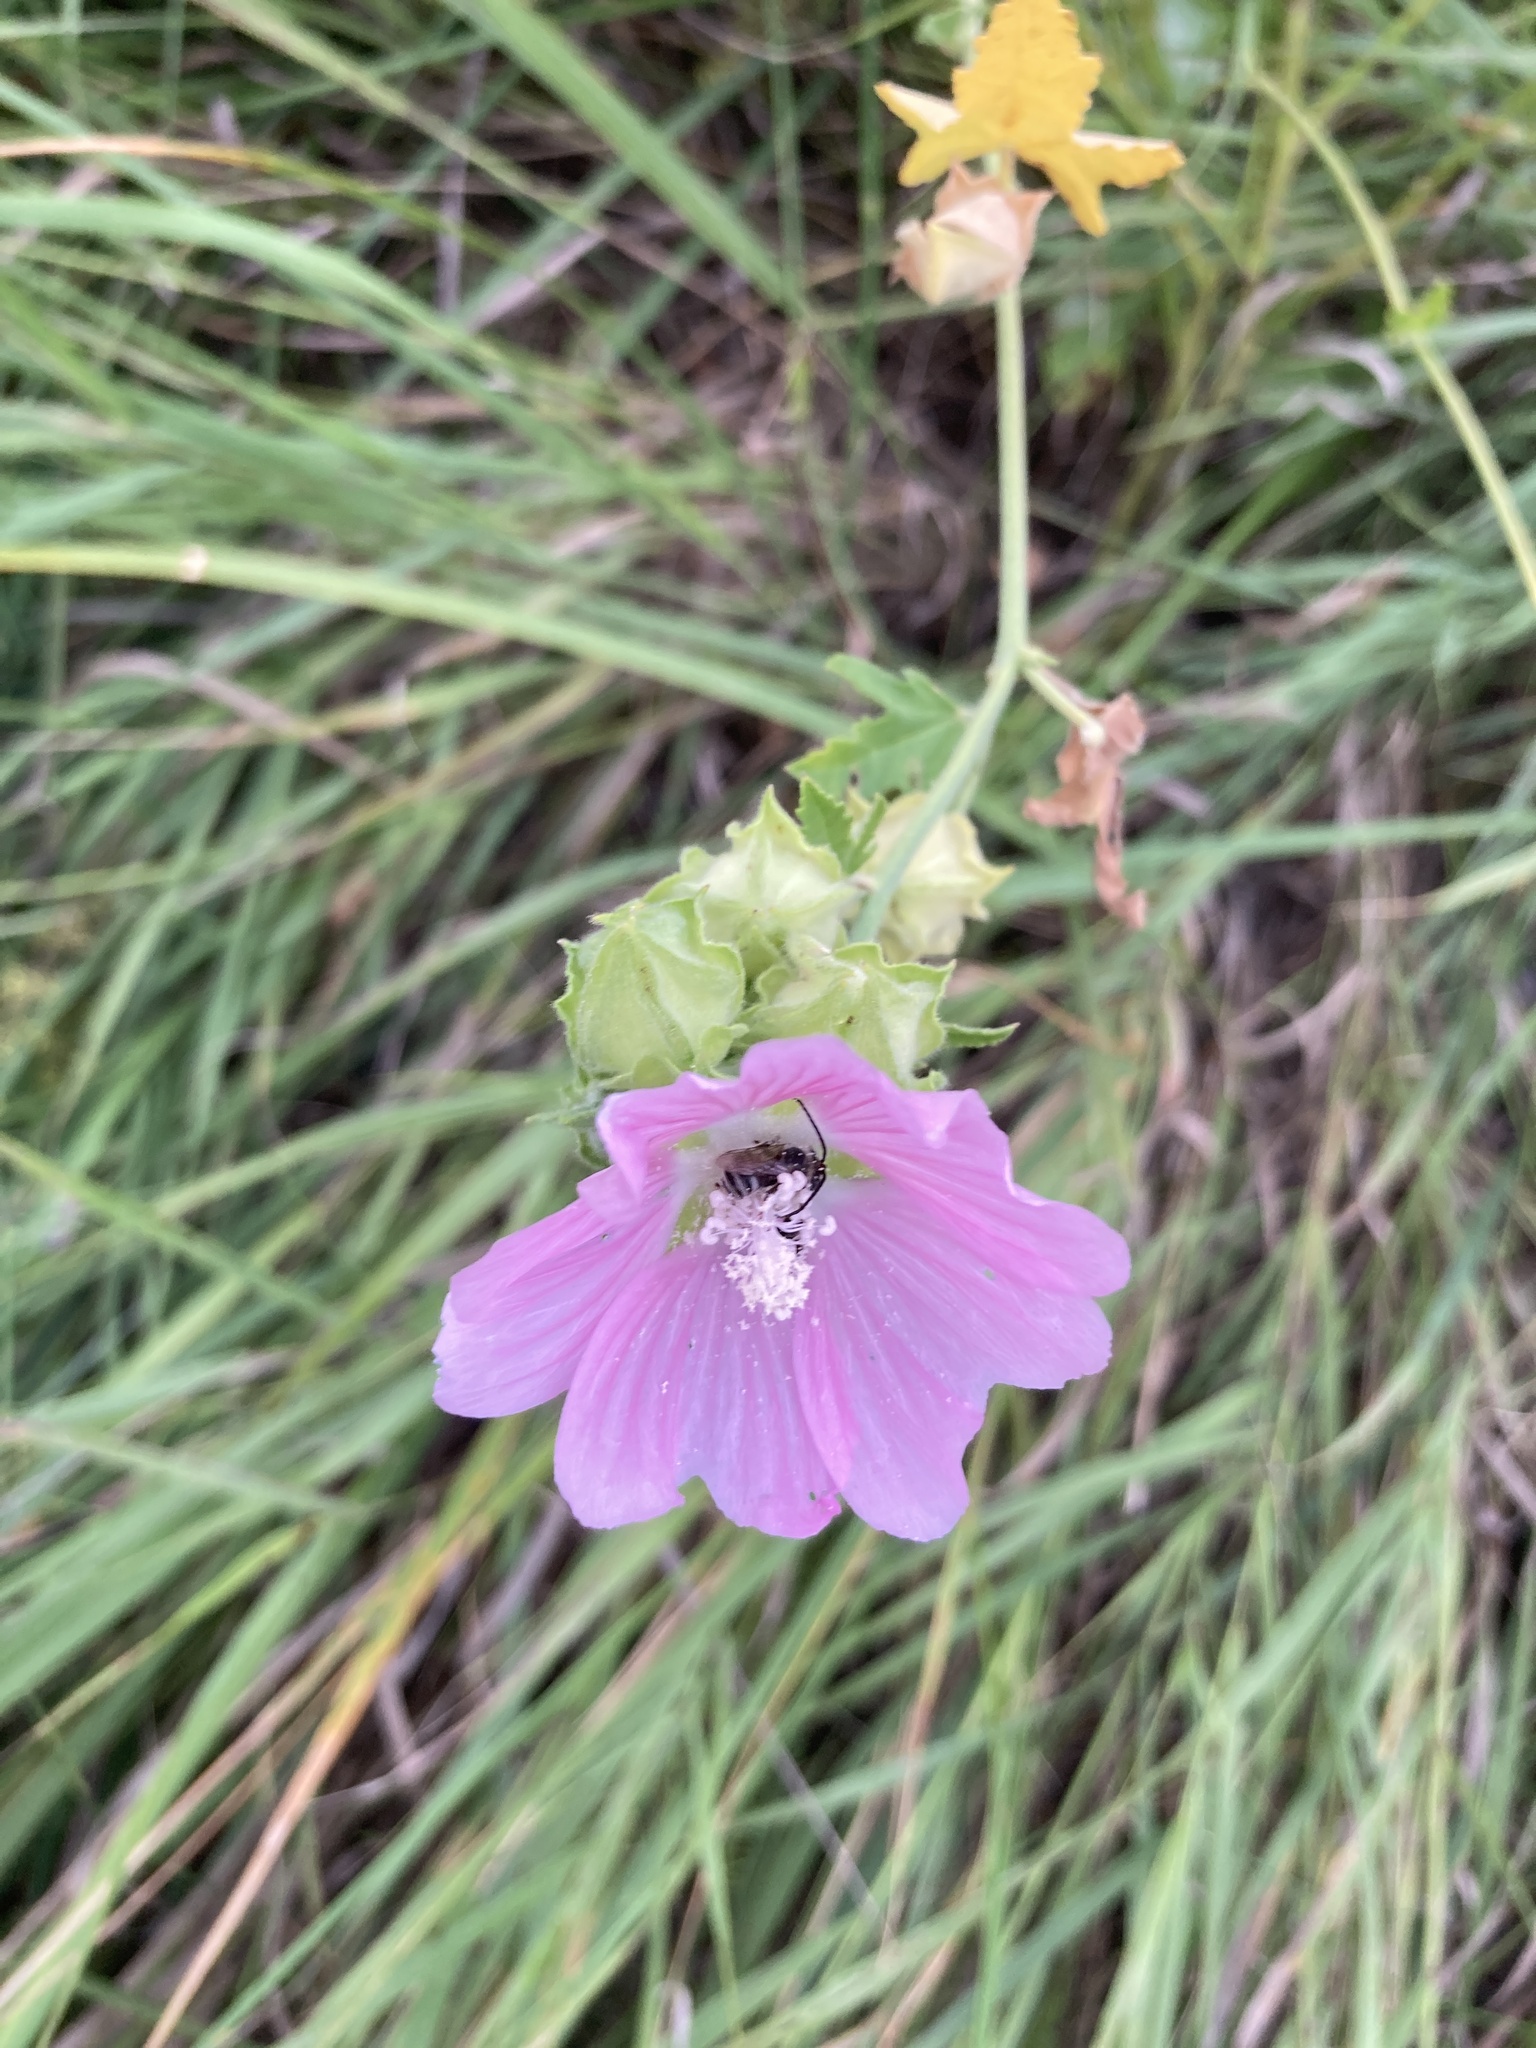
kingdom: Plantae
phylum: Tracheophyta
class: Magnoliopsida
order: Malvales
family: Malvaceae
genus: Malva
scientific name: Malva thuringiaca
